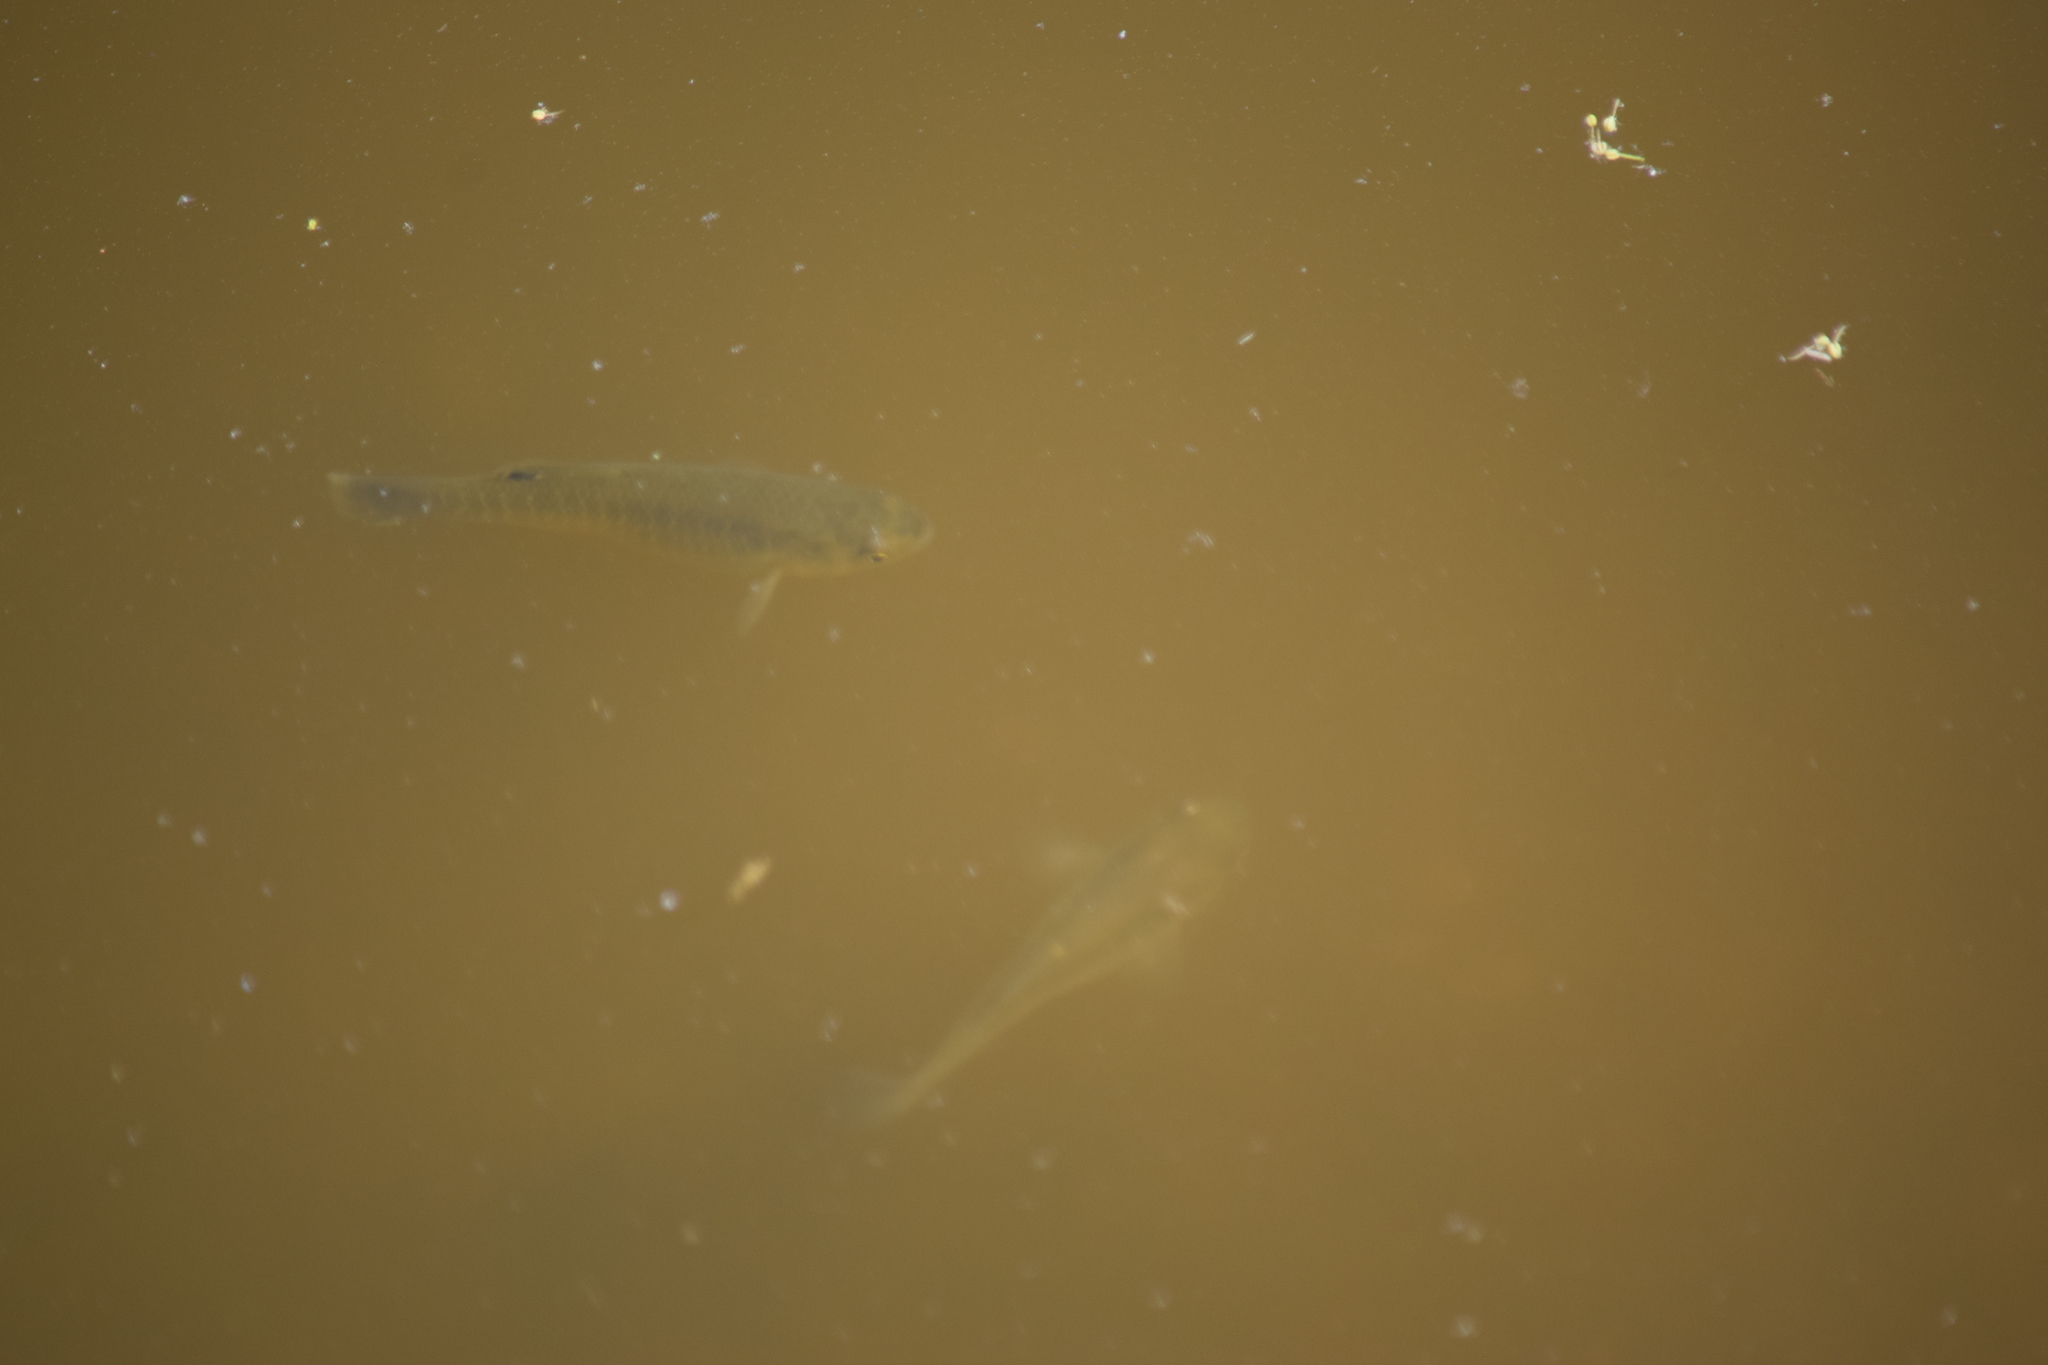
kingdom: Animalia
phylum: Chordata
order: Cyprinodontiformes
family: Fundulidae
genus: Fundulus
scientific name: Fundulus heteroclitus
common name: Mummichog
